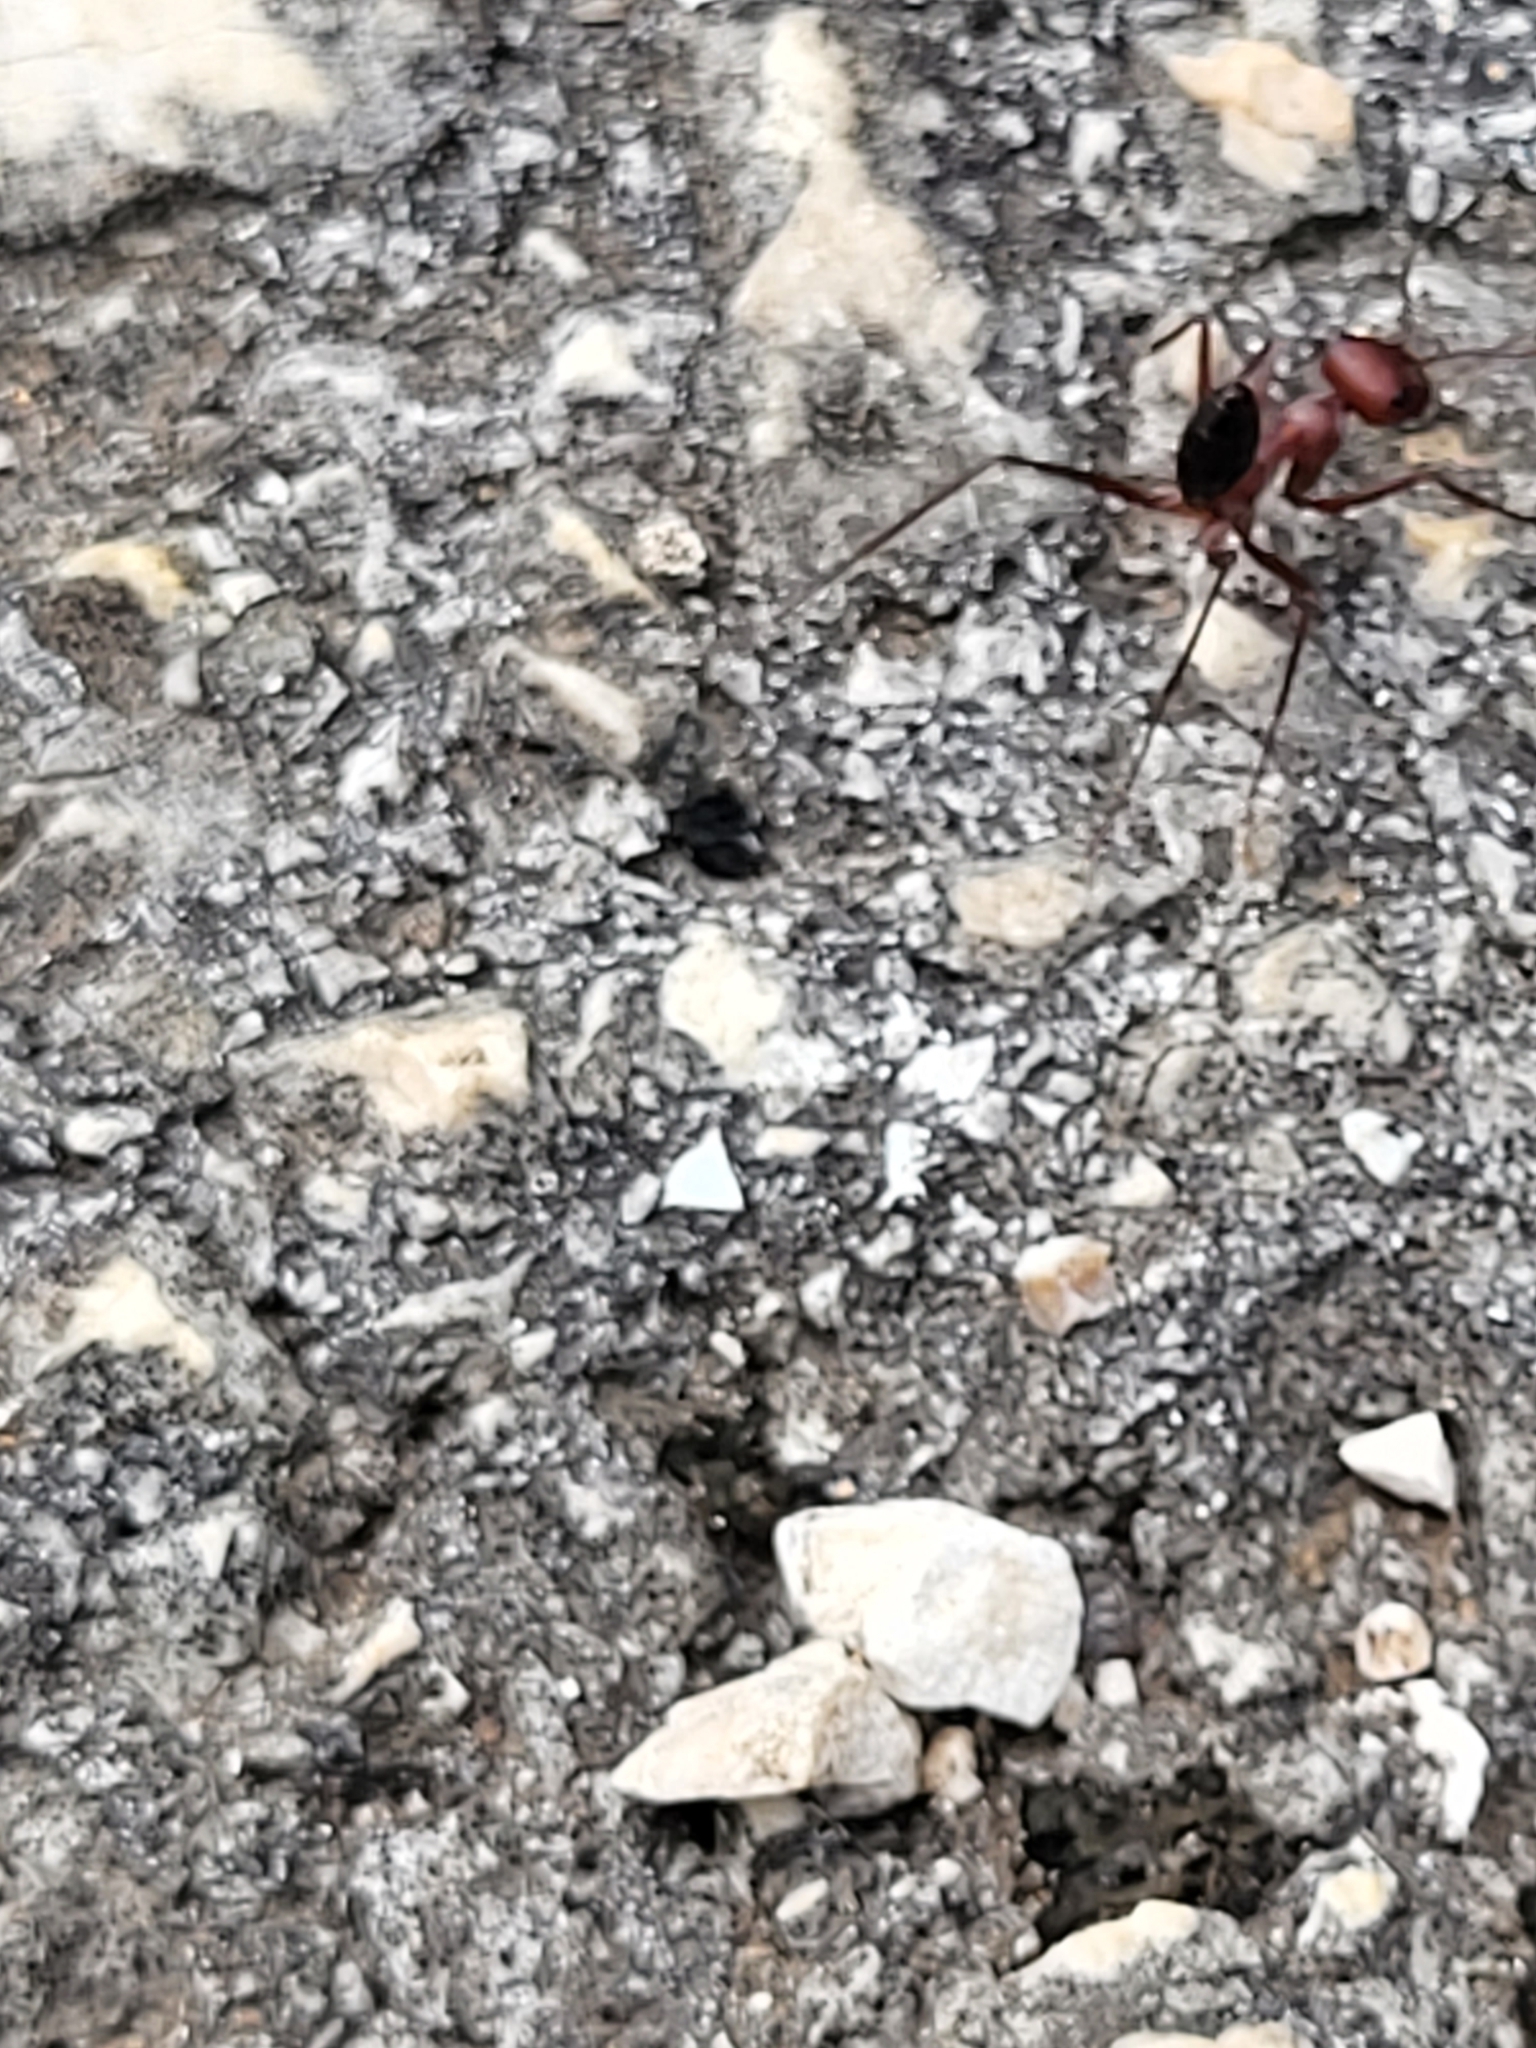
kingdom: Animalia
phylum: Arthropoda
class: Insecta
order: Hymenoptera
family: Formicidae
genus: Cataglyphis
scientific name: Cataglyphis nodus
